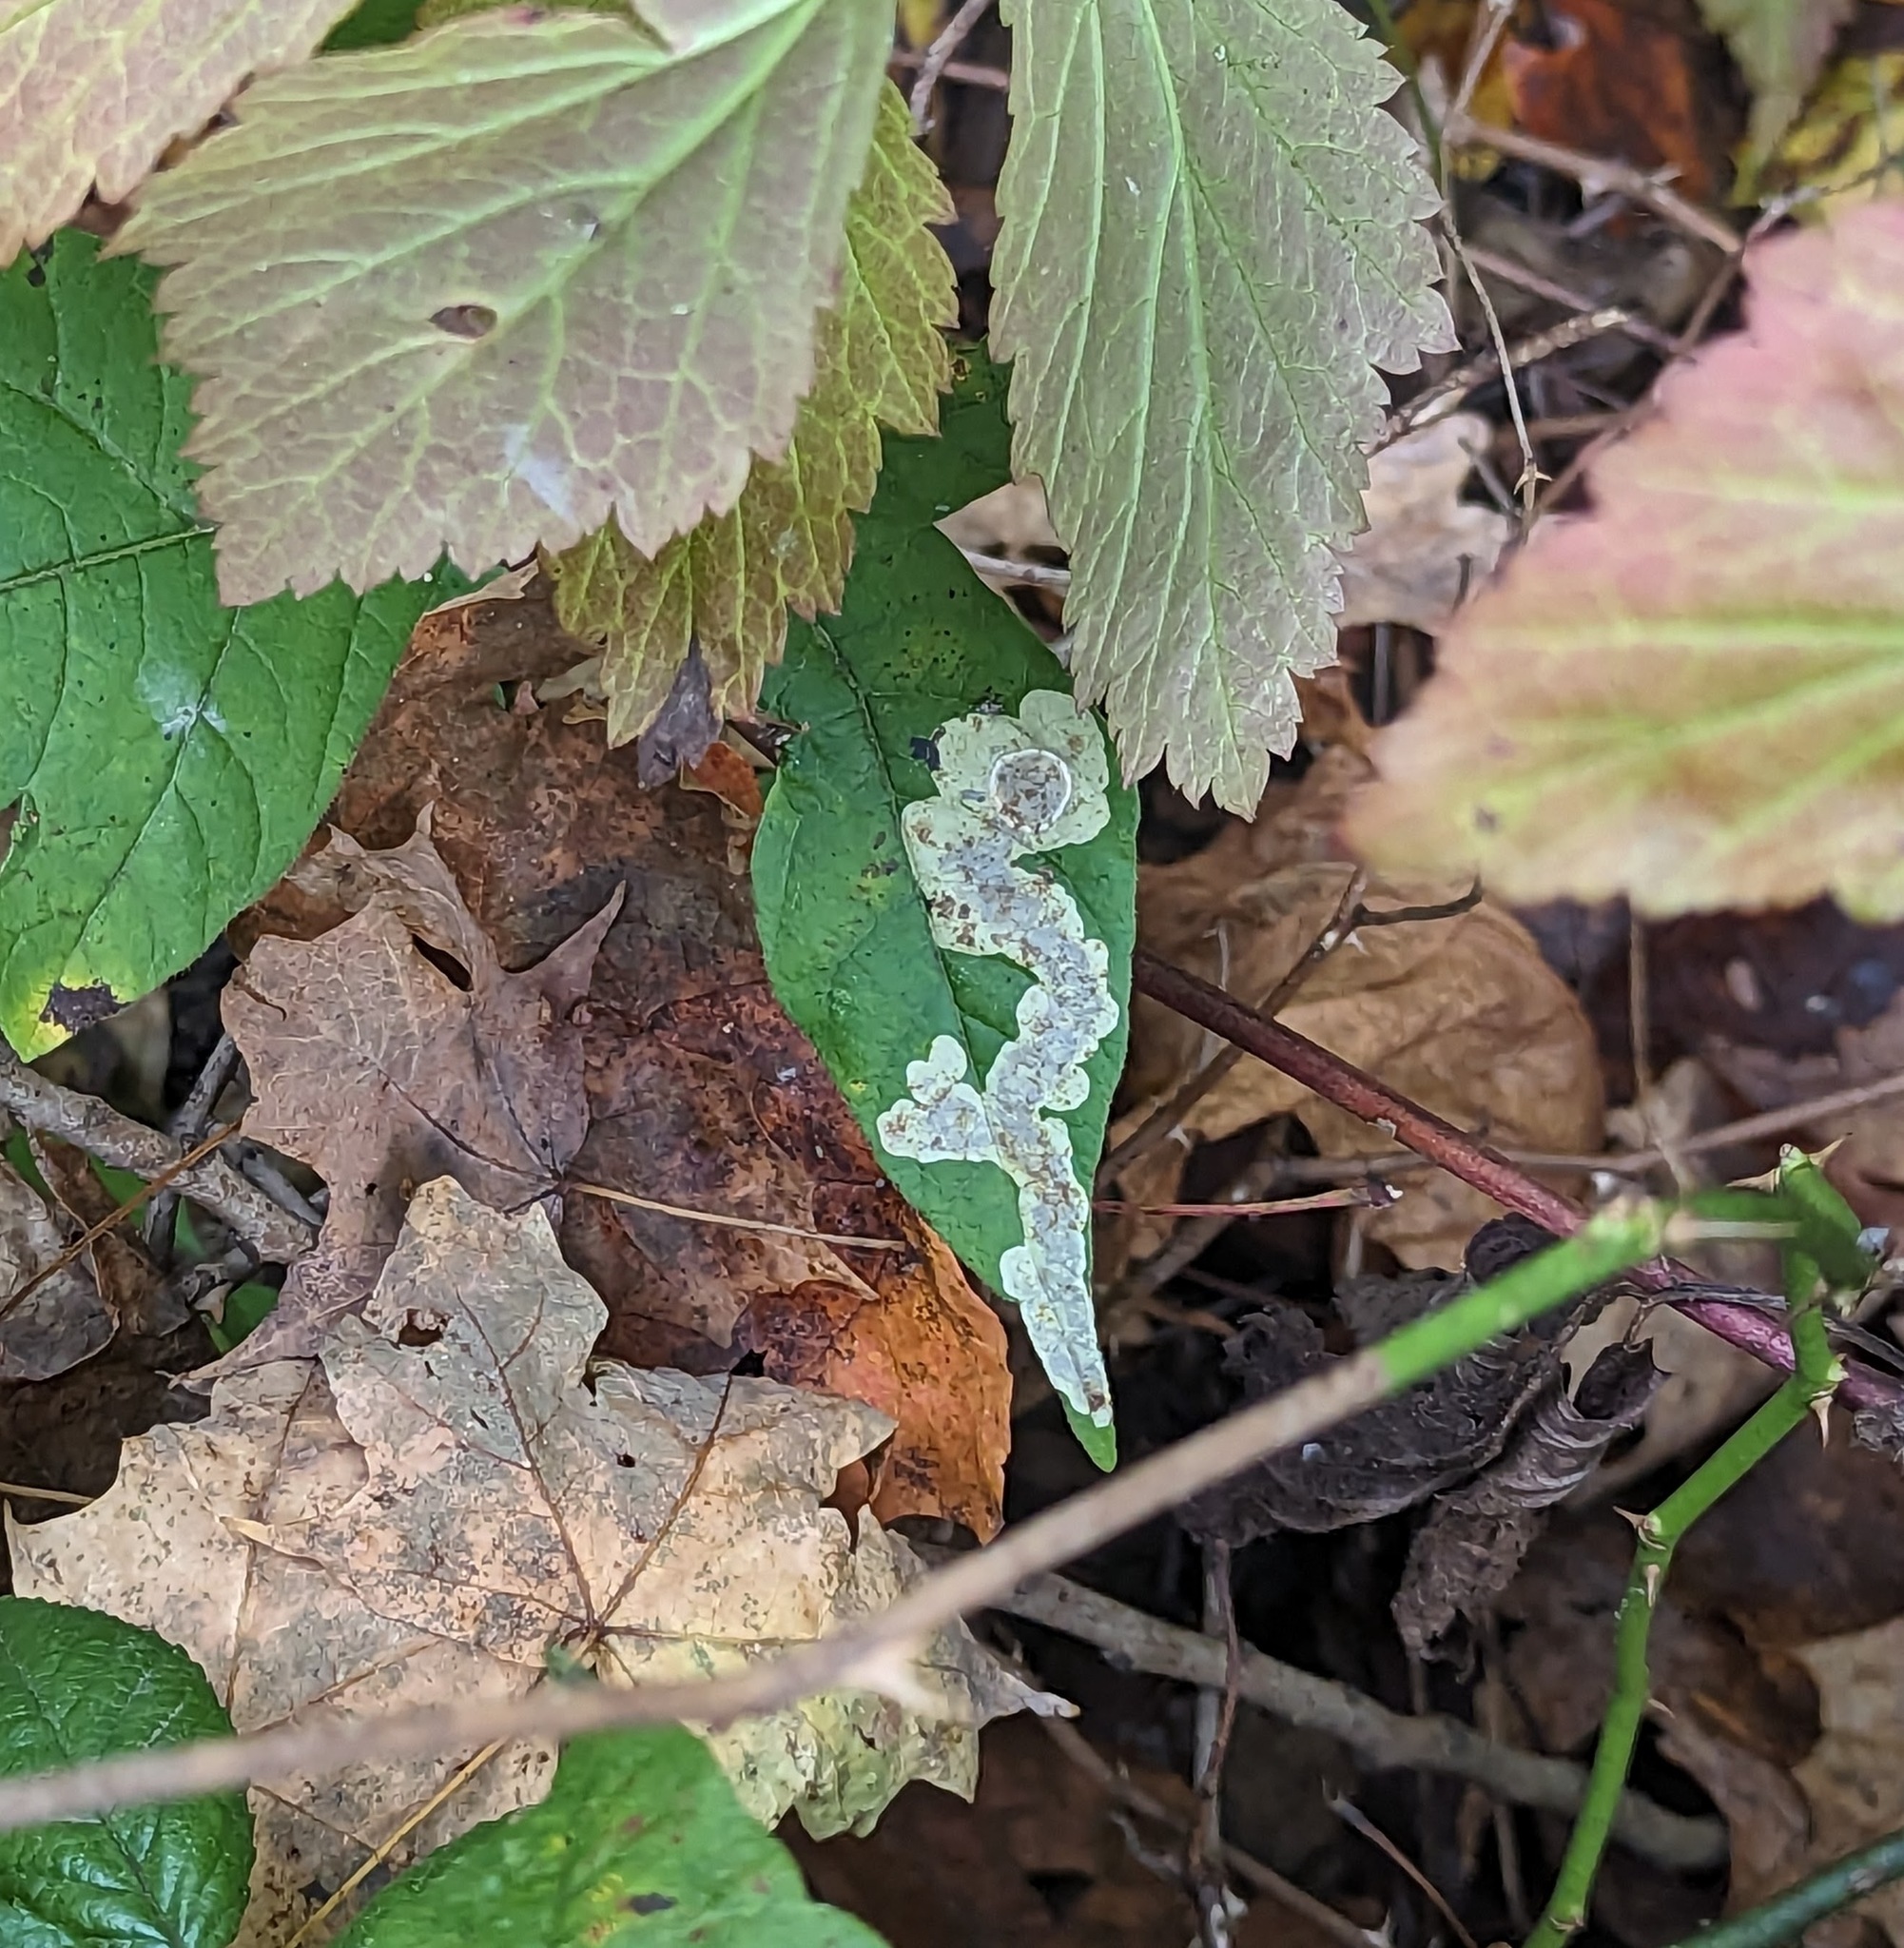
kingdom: Animalia
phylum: Arthropoda
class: Insecta
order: Lepidoptera
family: Gracillariidae
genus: Cameraria
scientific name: Cameraria guttifinitella
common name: Poison ivy leaf-miner moth
